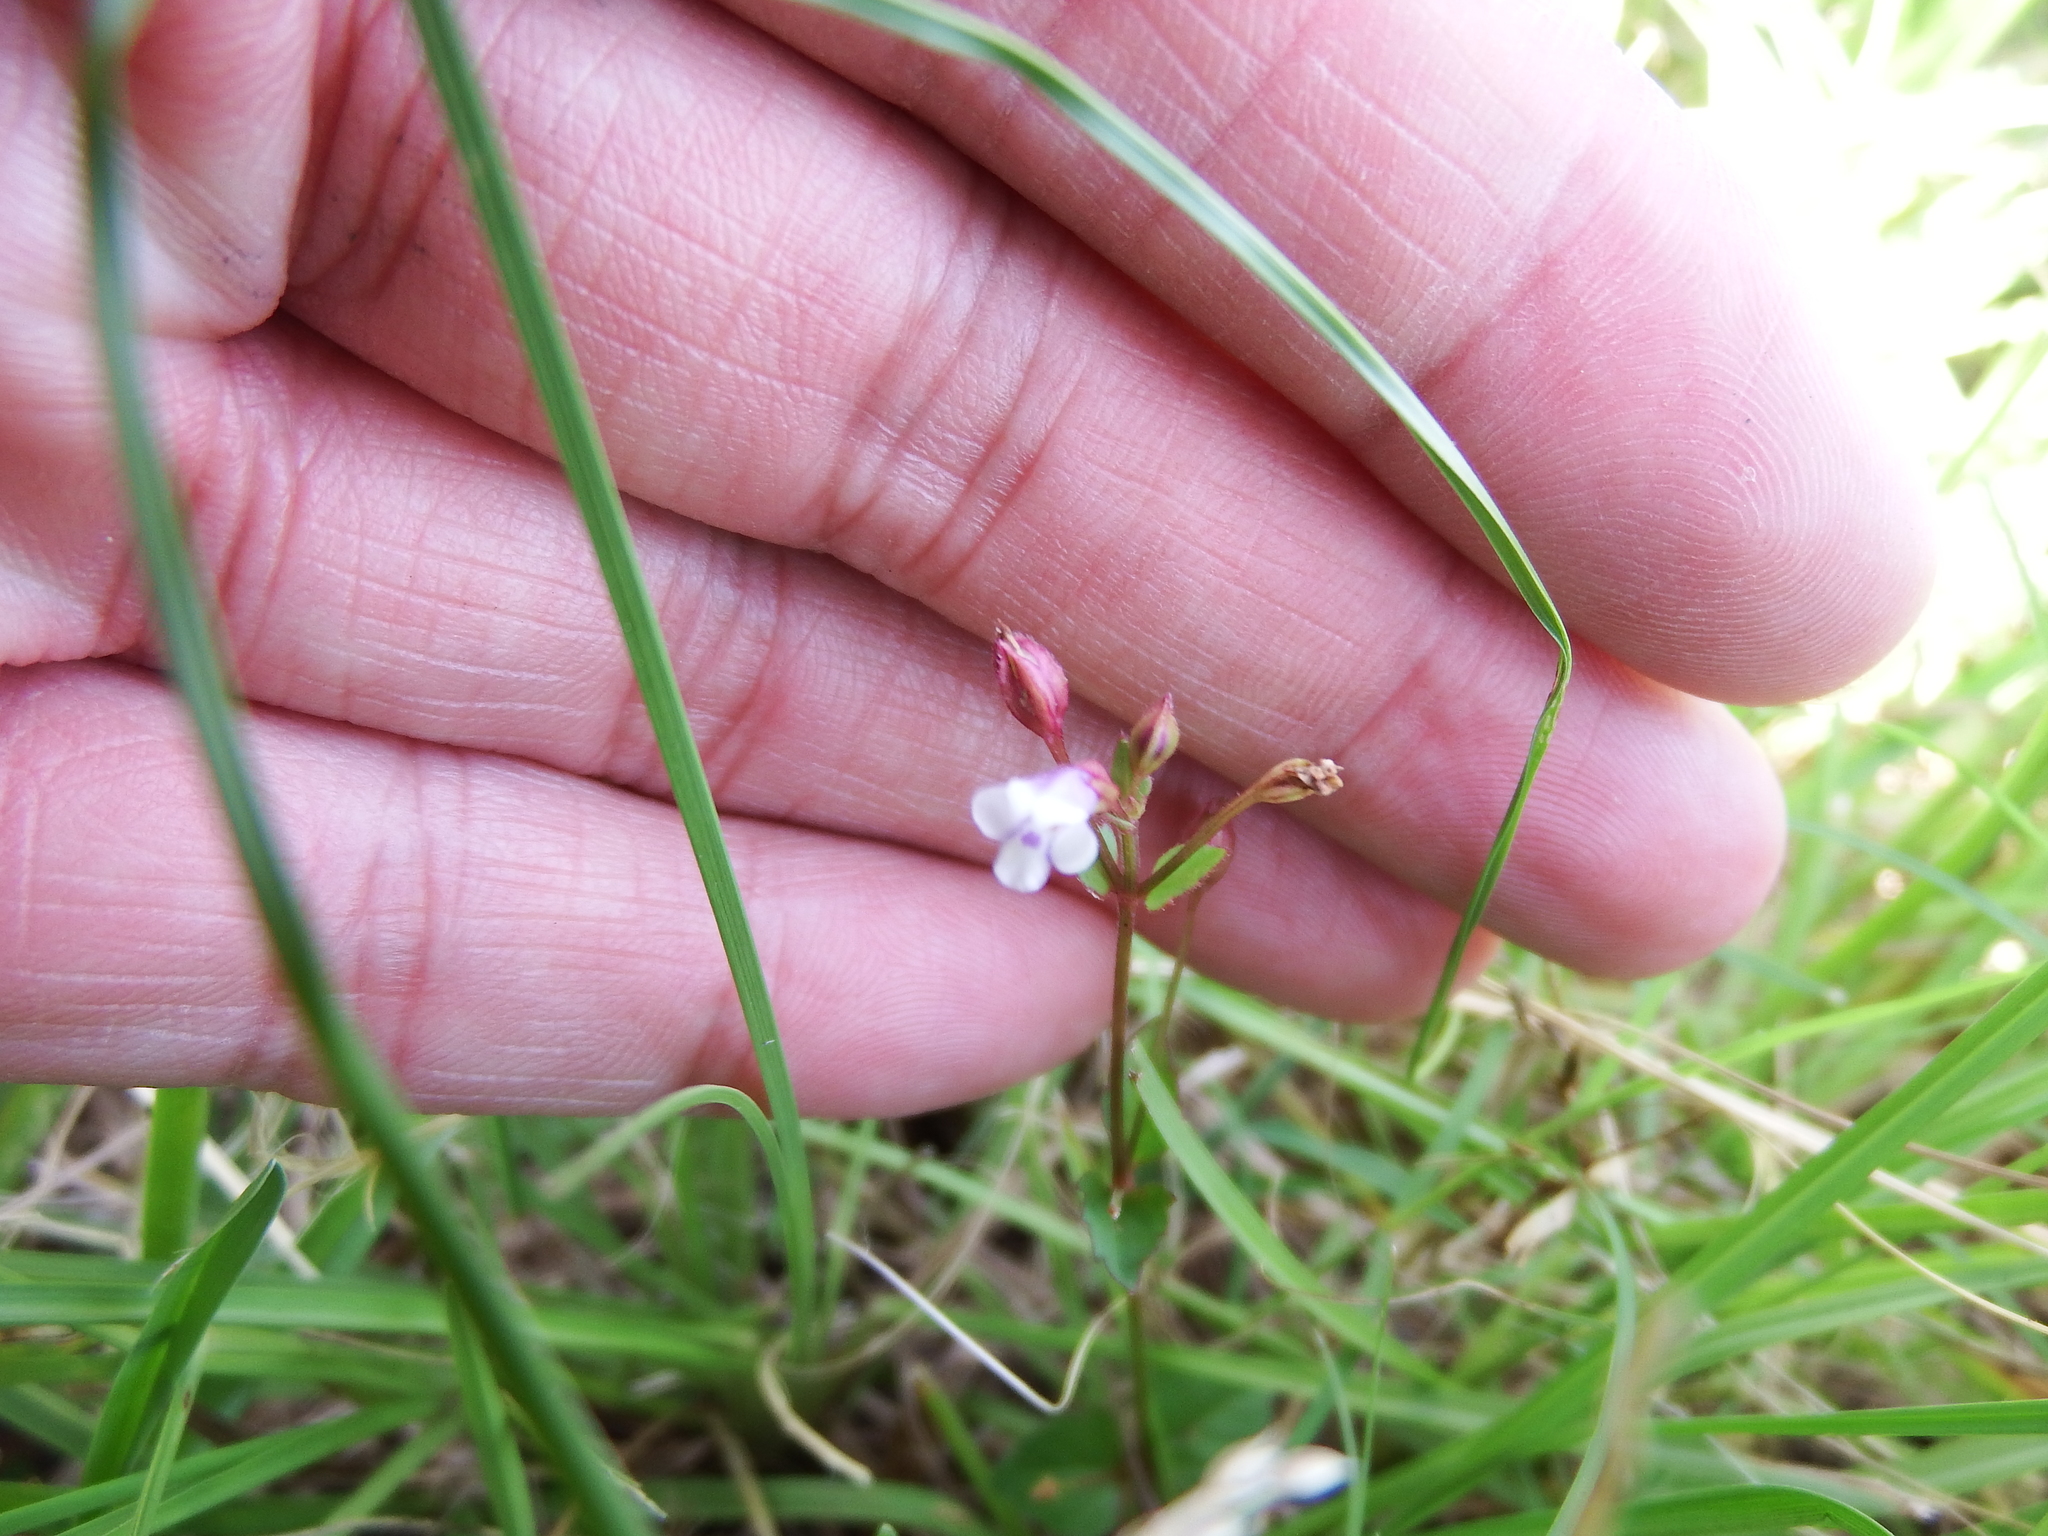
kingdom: Plantae
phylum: Tracheophyta
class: Magnoliopsida
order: Lamiales
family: Linderniaceae
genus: Torenia
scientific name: Torenia crustacea
